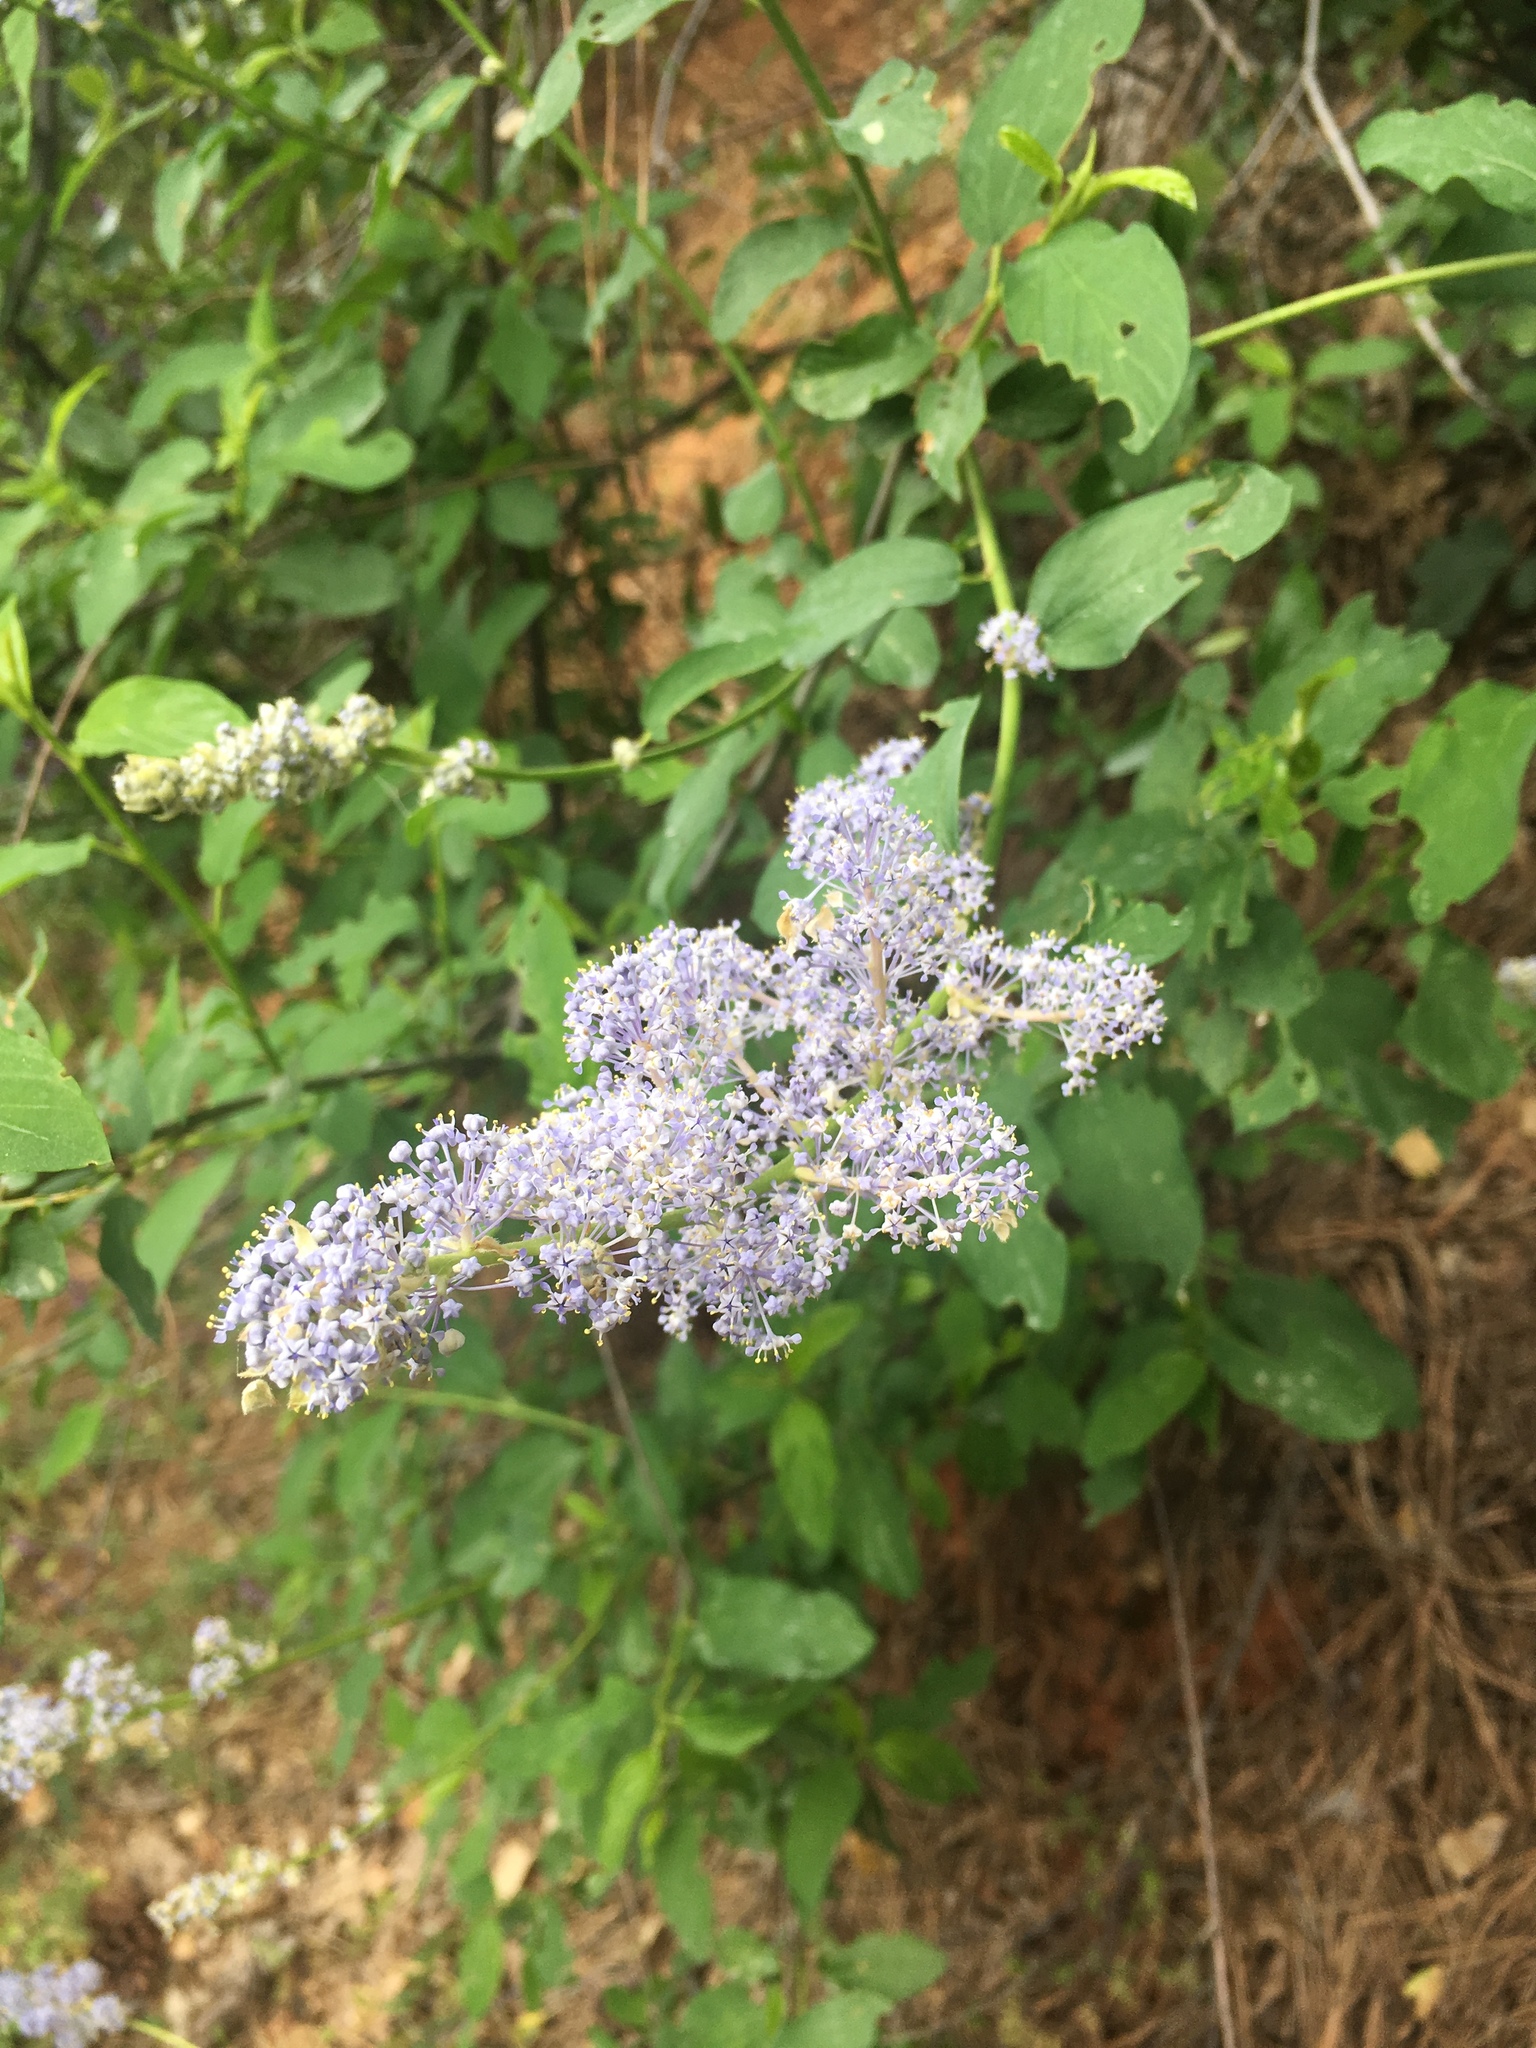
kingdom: Plantae
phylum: Tracheophyta
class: Magnoliopsida
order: Rosales
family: Rhamnaceae
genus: Ceanothus
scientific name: Ceanothus integerrimus
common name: Deerbrush ceanothus
